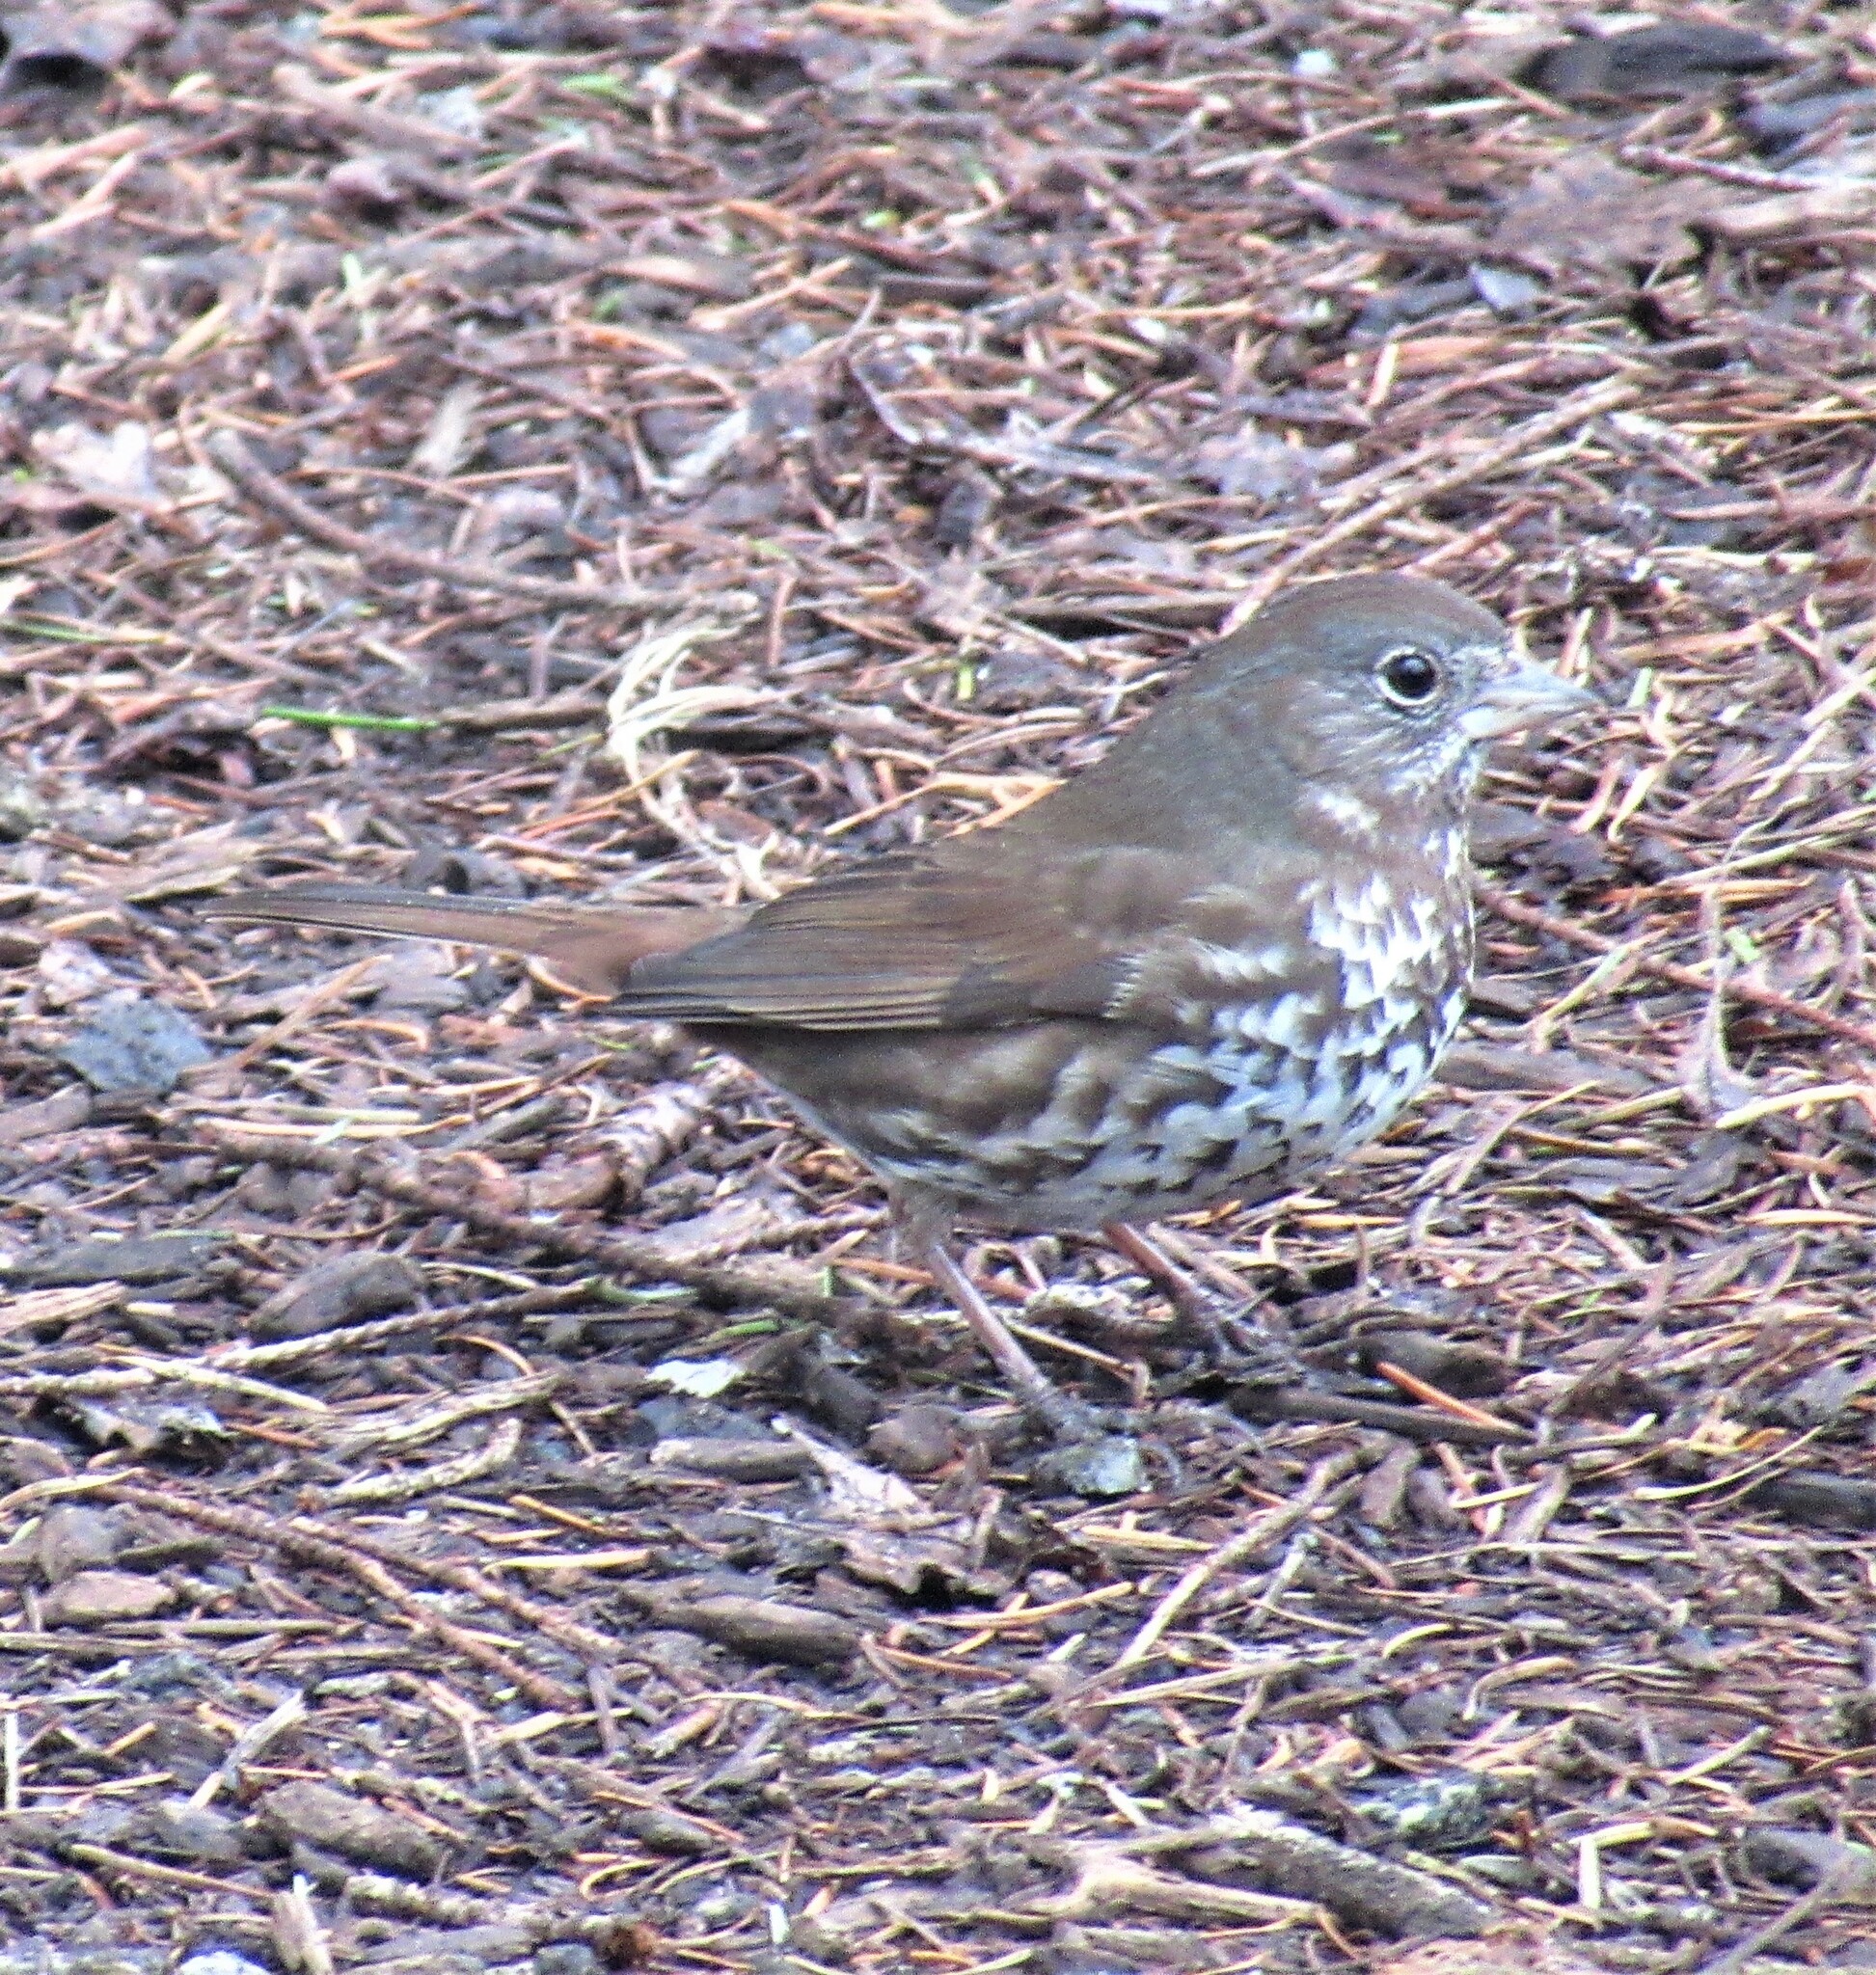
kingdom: Animalia
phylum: Chordata
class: Aves
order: Passeriformes
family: Passerellidae
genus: Passerella
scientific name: Passerella iliaca
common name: Fox sparrow
